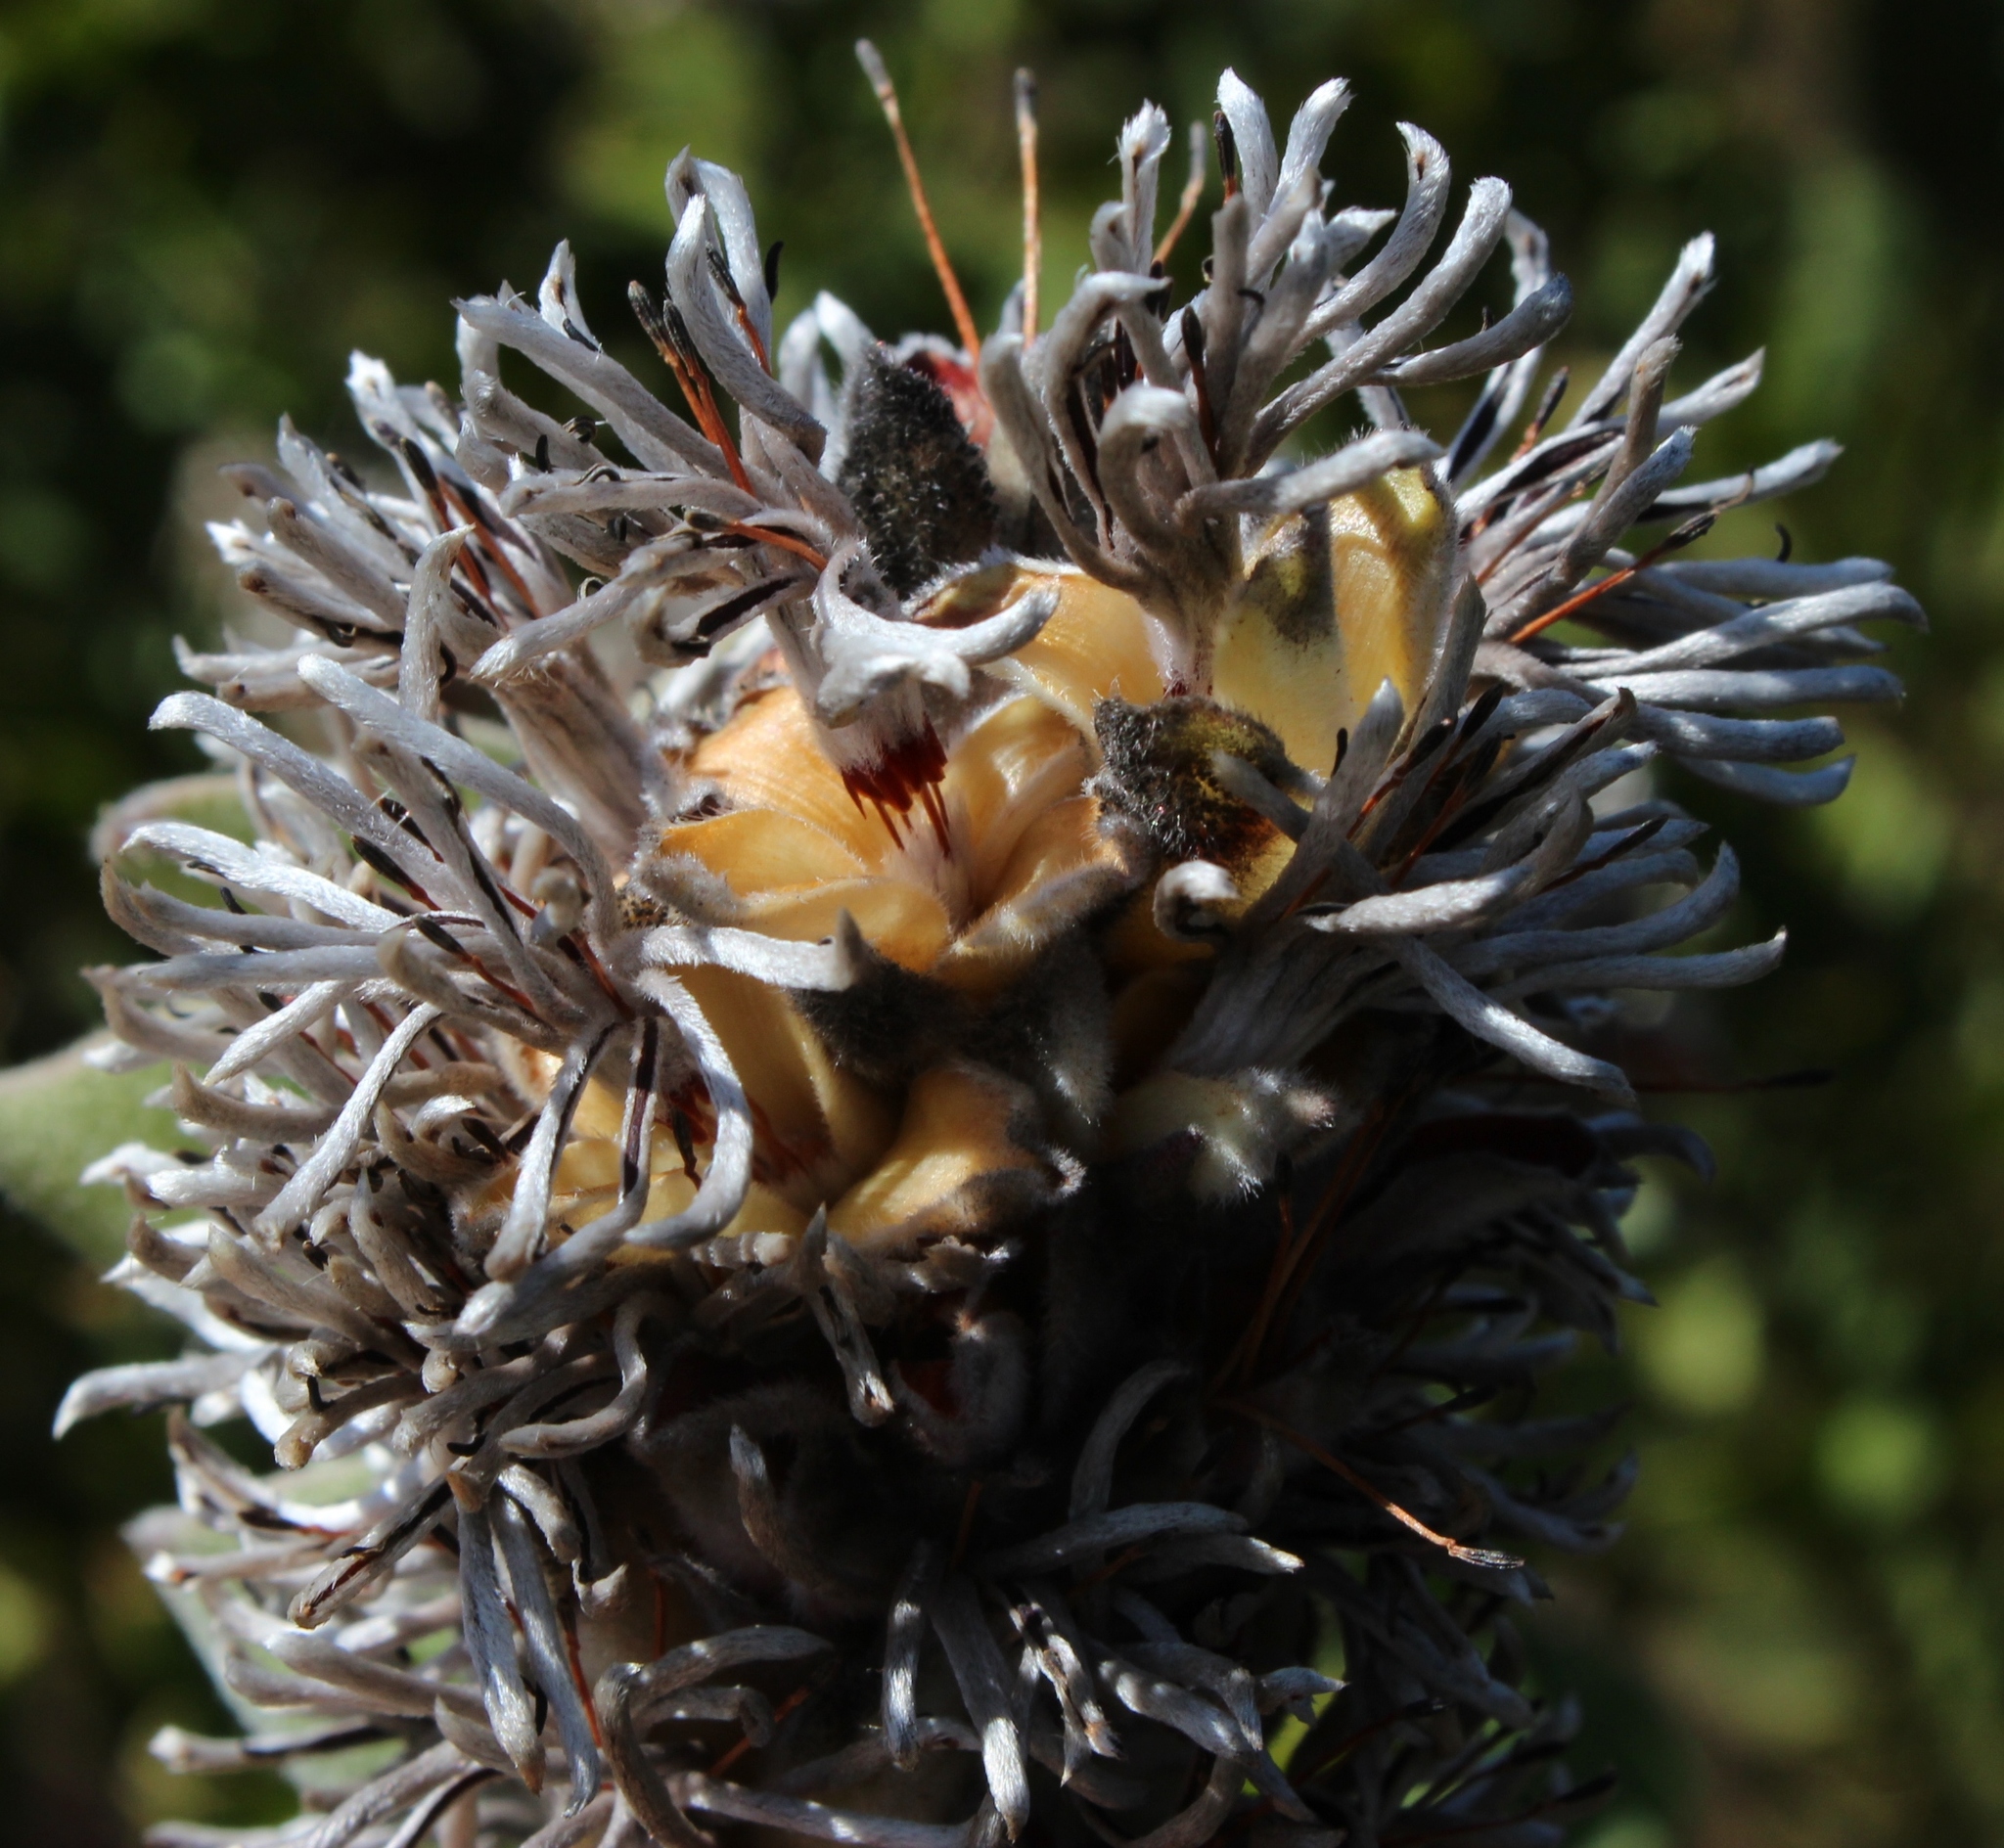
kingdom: Plantae
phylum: Tracheophyta
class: Magnoliopsida
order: Proteales
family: Proteaceae
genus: Paranomus
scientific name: Paranomus sceptrum-gustavianus
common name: King gustav's sceptre
